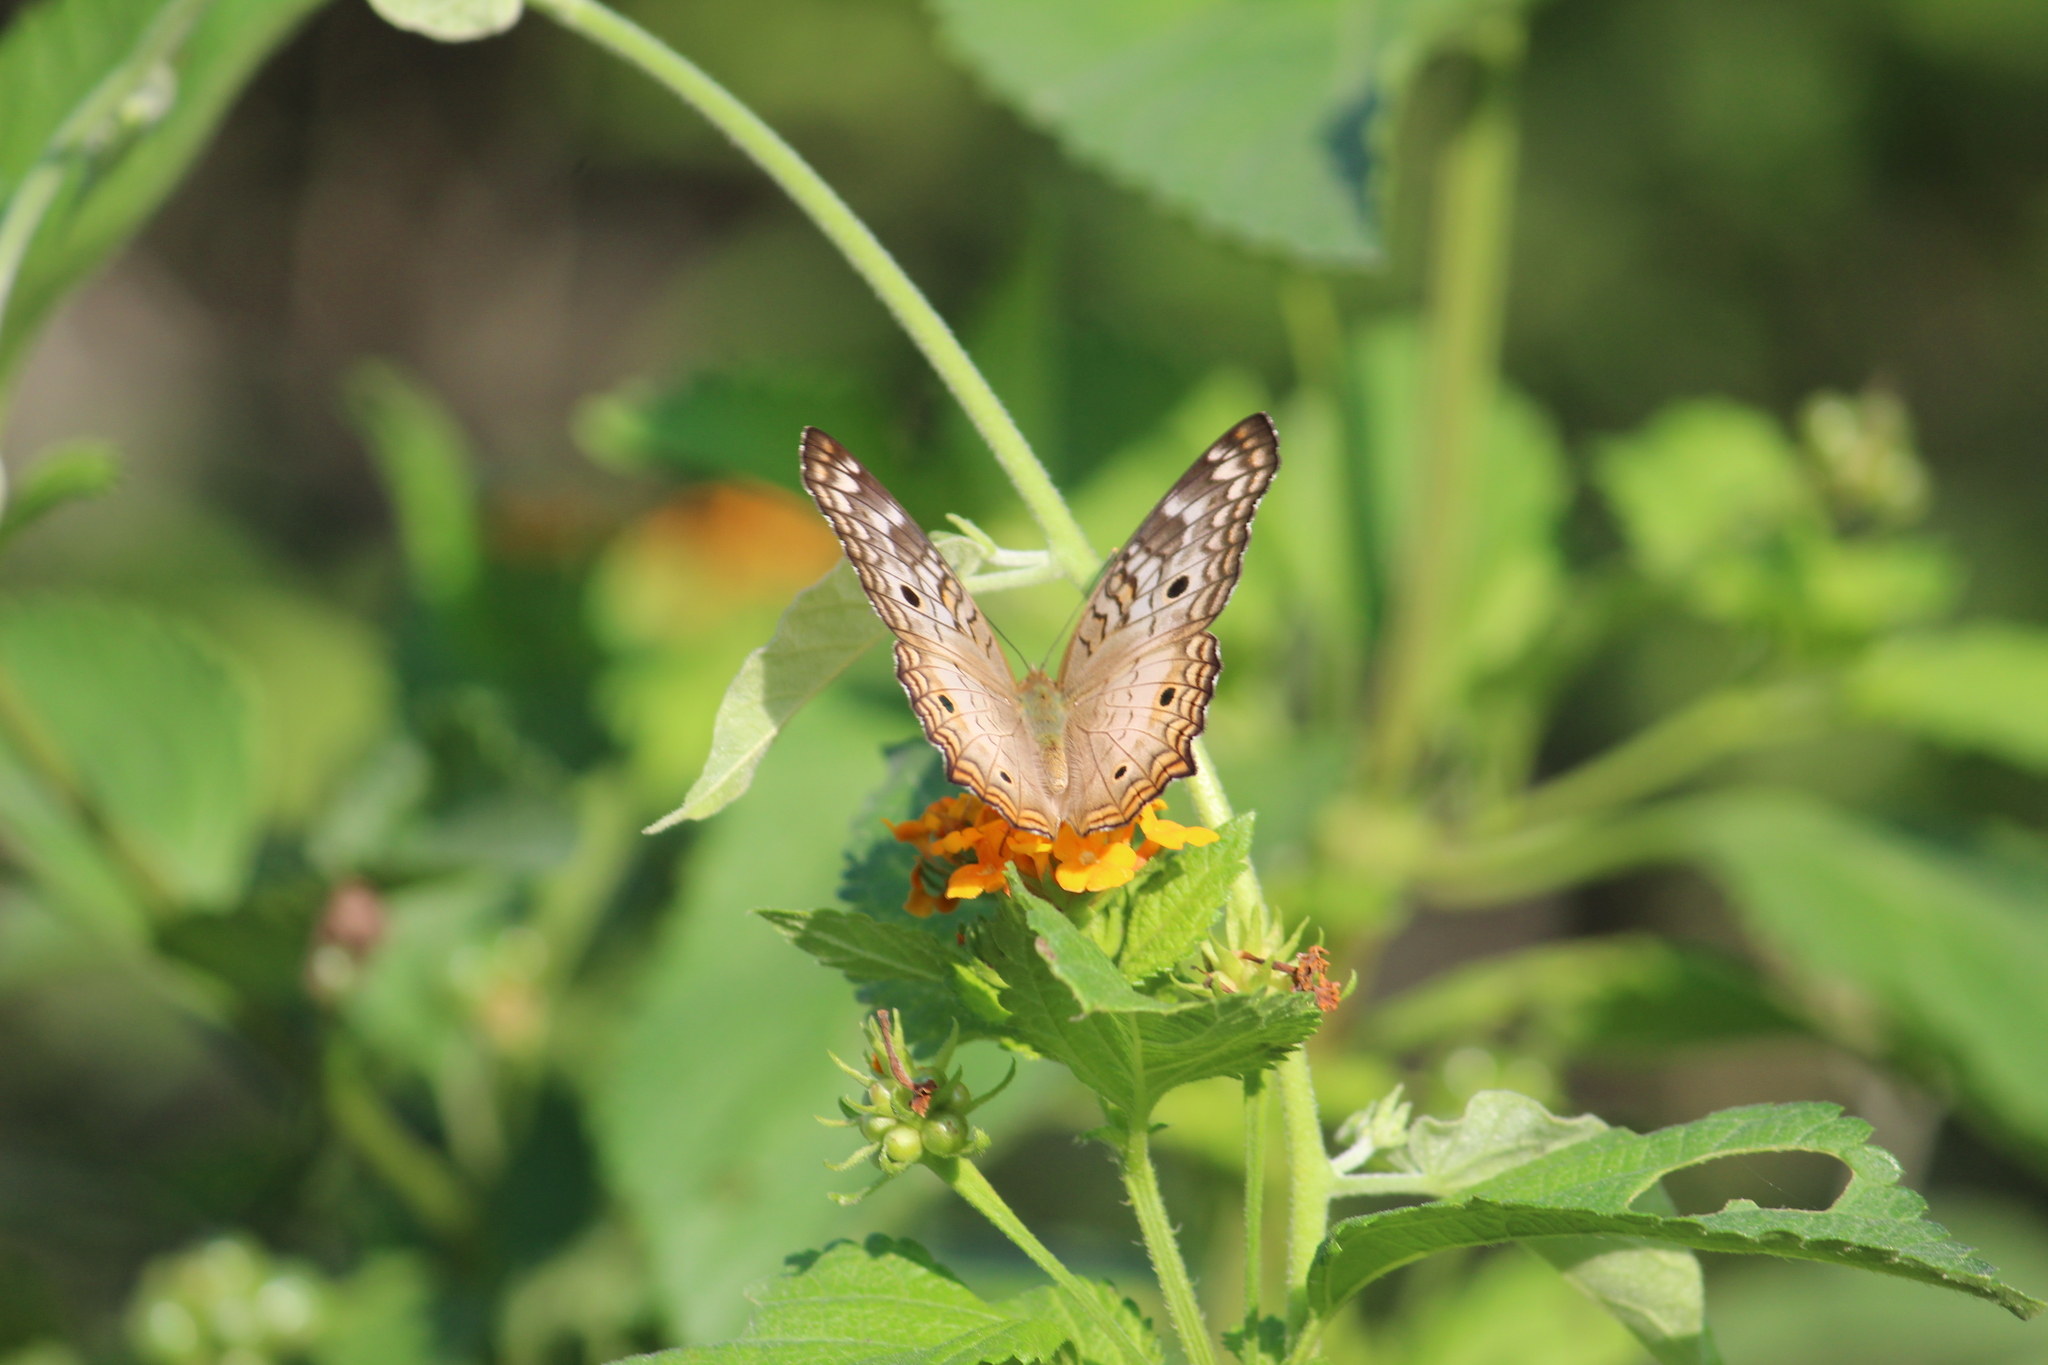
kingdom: Animalia
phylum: Arthropoda
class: Insecta
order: Lepidoptera
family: Nymphalidae
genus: Anartia
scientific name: Anartia jatrophae
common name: White peacock
